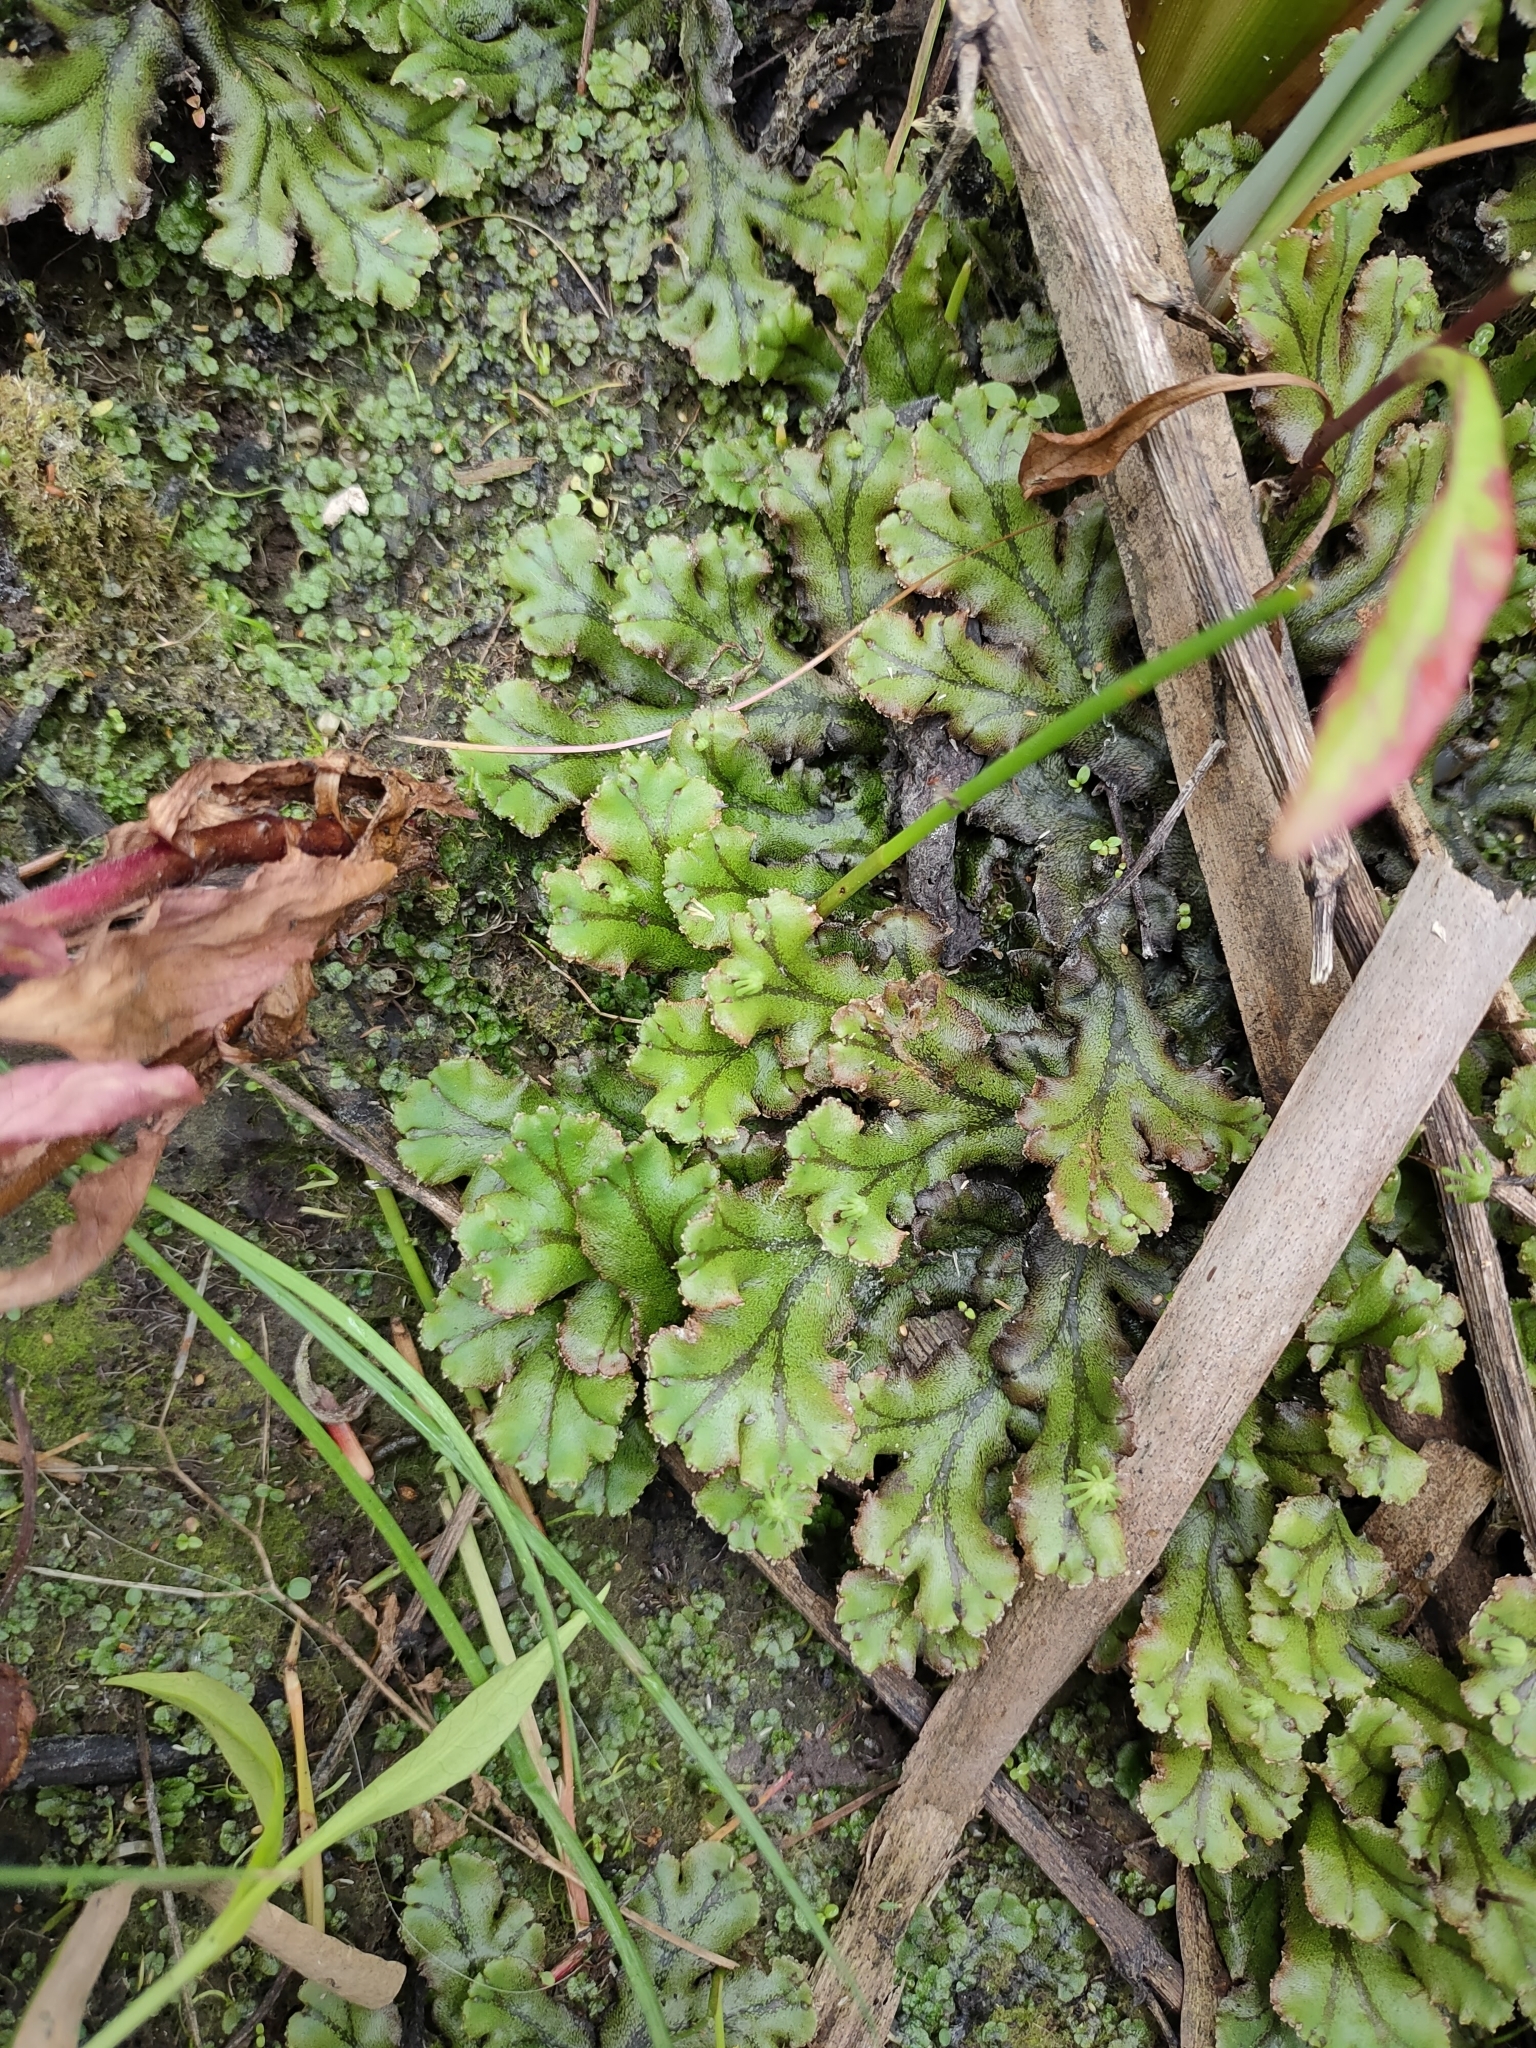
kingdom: Plantae
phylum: Marchantiophyta
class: Marchantiopsida
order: Marchantiales
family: Marchantiaceae
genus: Marchantia
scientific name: Marchantia polymorpha
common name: Common liverwort
